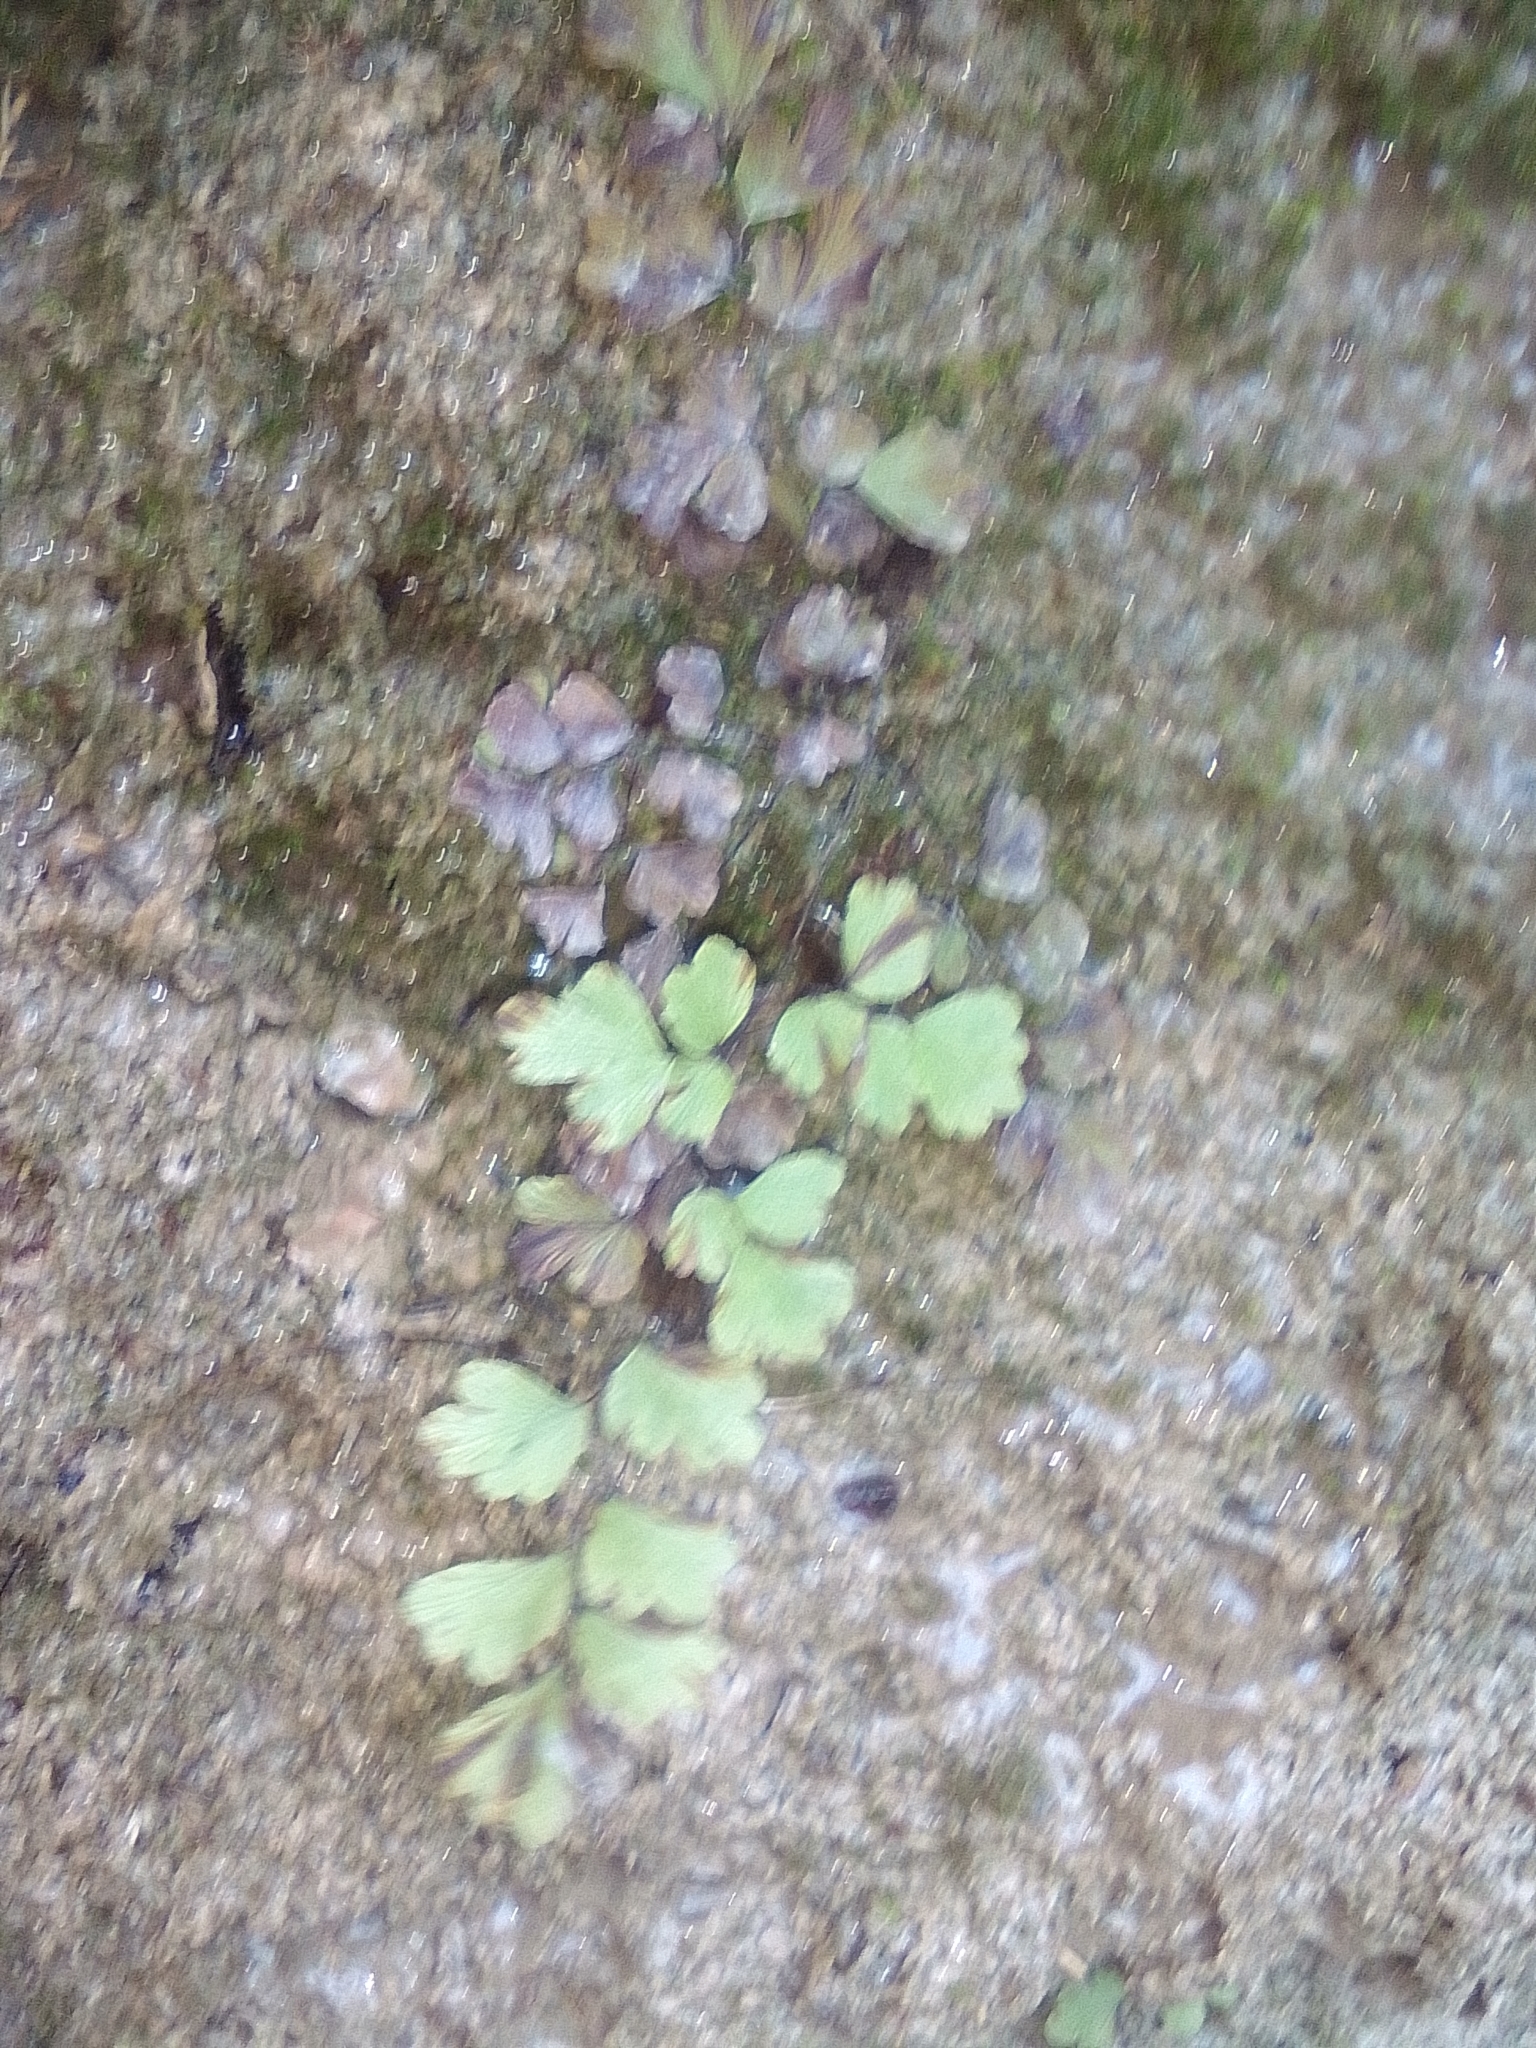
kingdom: Plantae
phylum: Tracheophyta
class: Polypodiopsida
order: Polypodiales
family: Pteridaceae
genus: Adiantum
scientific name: Adiantum capillus-veneris
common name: Maidenhair fern
